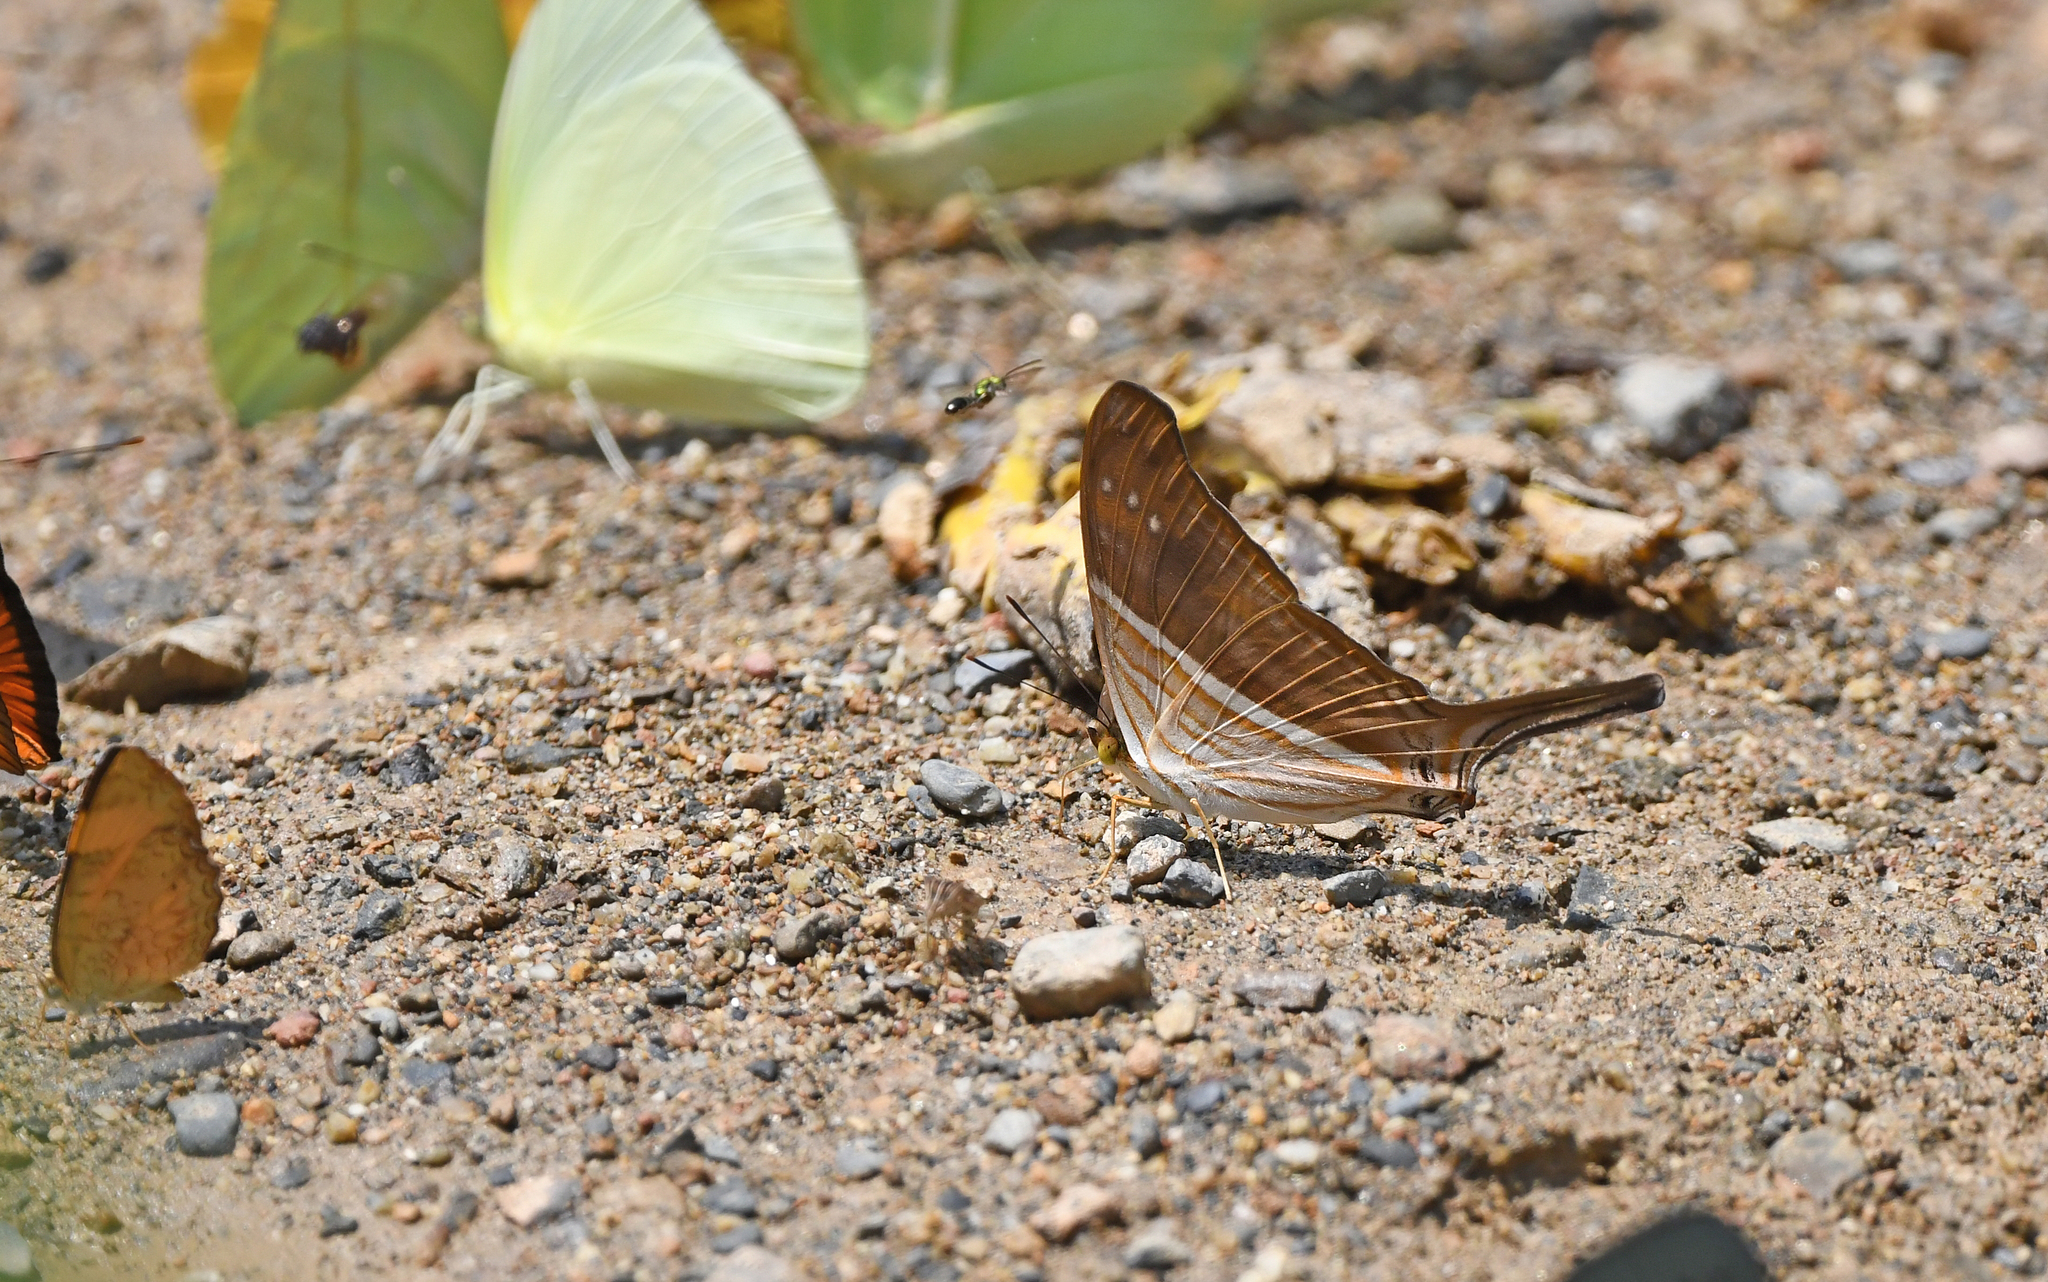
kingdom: Animalia
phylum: Arthropoda
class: Insecta
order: Lepidoptera
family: Nymphalidae
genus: Marpesia
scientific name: Marpesia chiron
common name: Many-banded daggerwing
